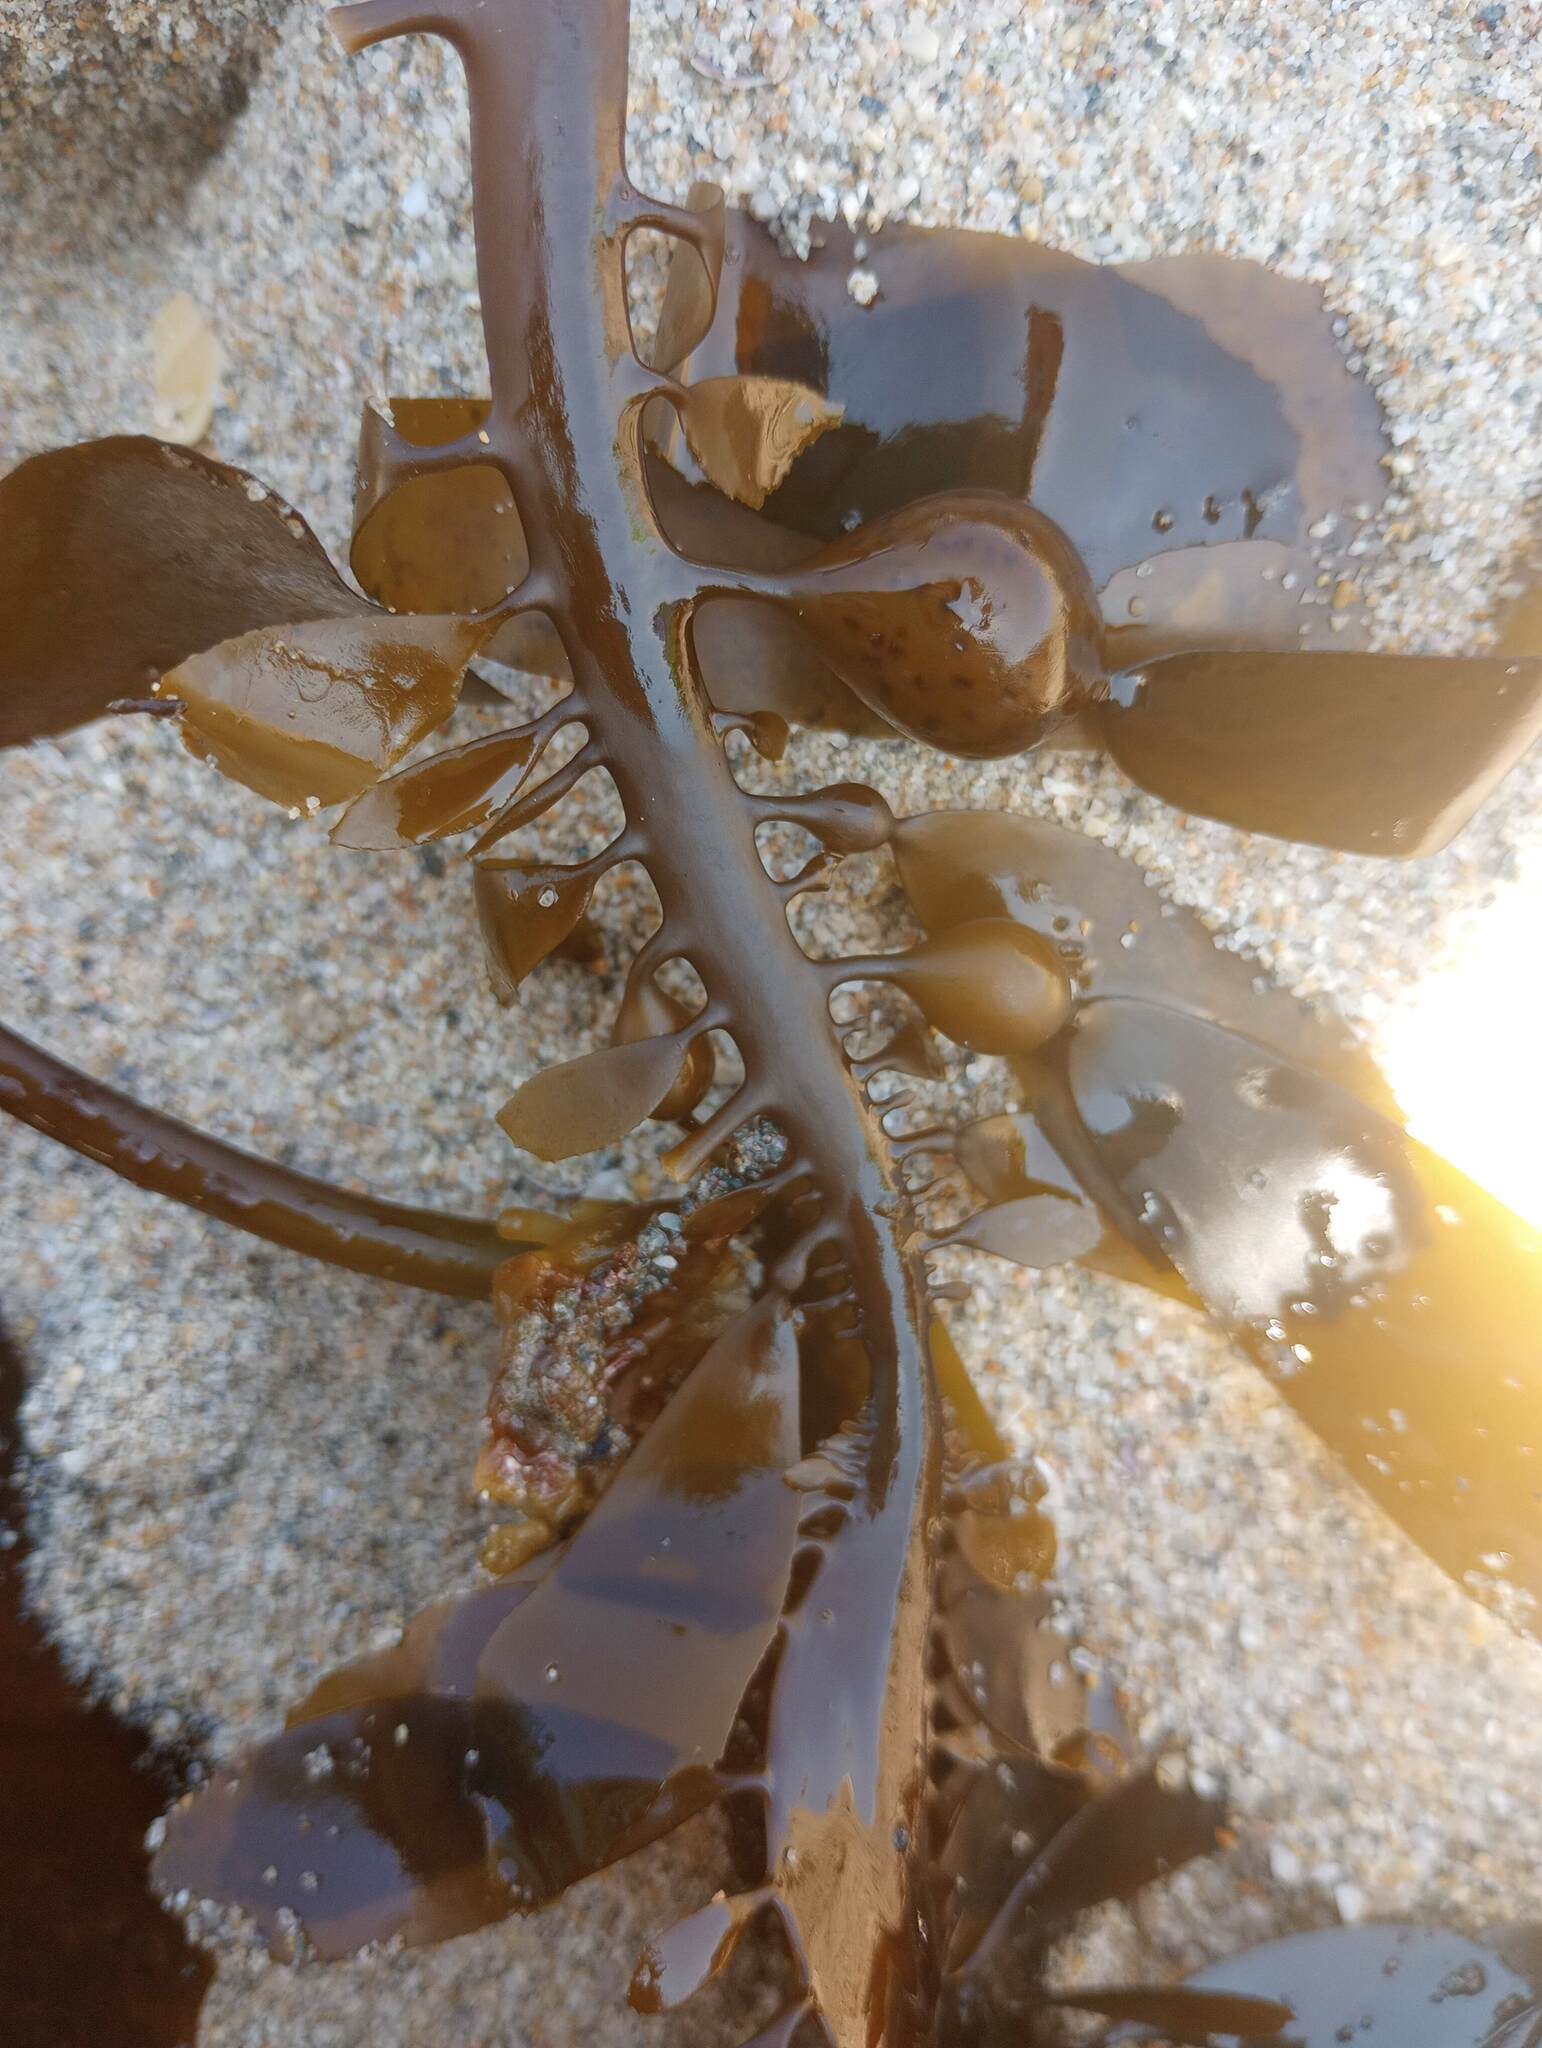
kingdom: Chromista
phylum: Ochrophyta
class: Phaeophyceae
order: Laminariales
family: Lessoniaceae
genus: Egregia
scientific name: Egregia menziesii
